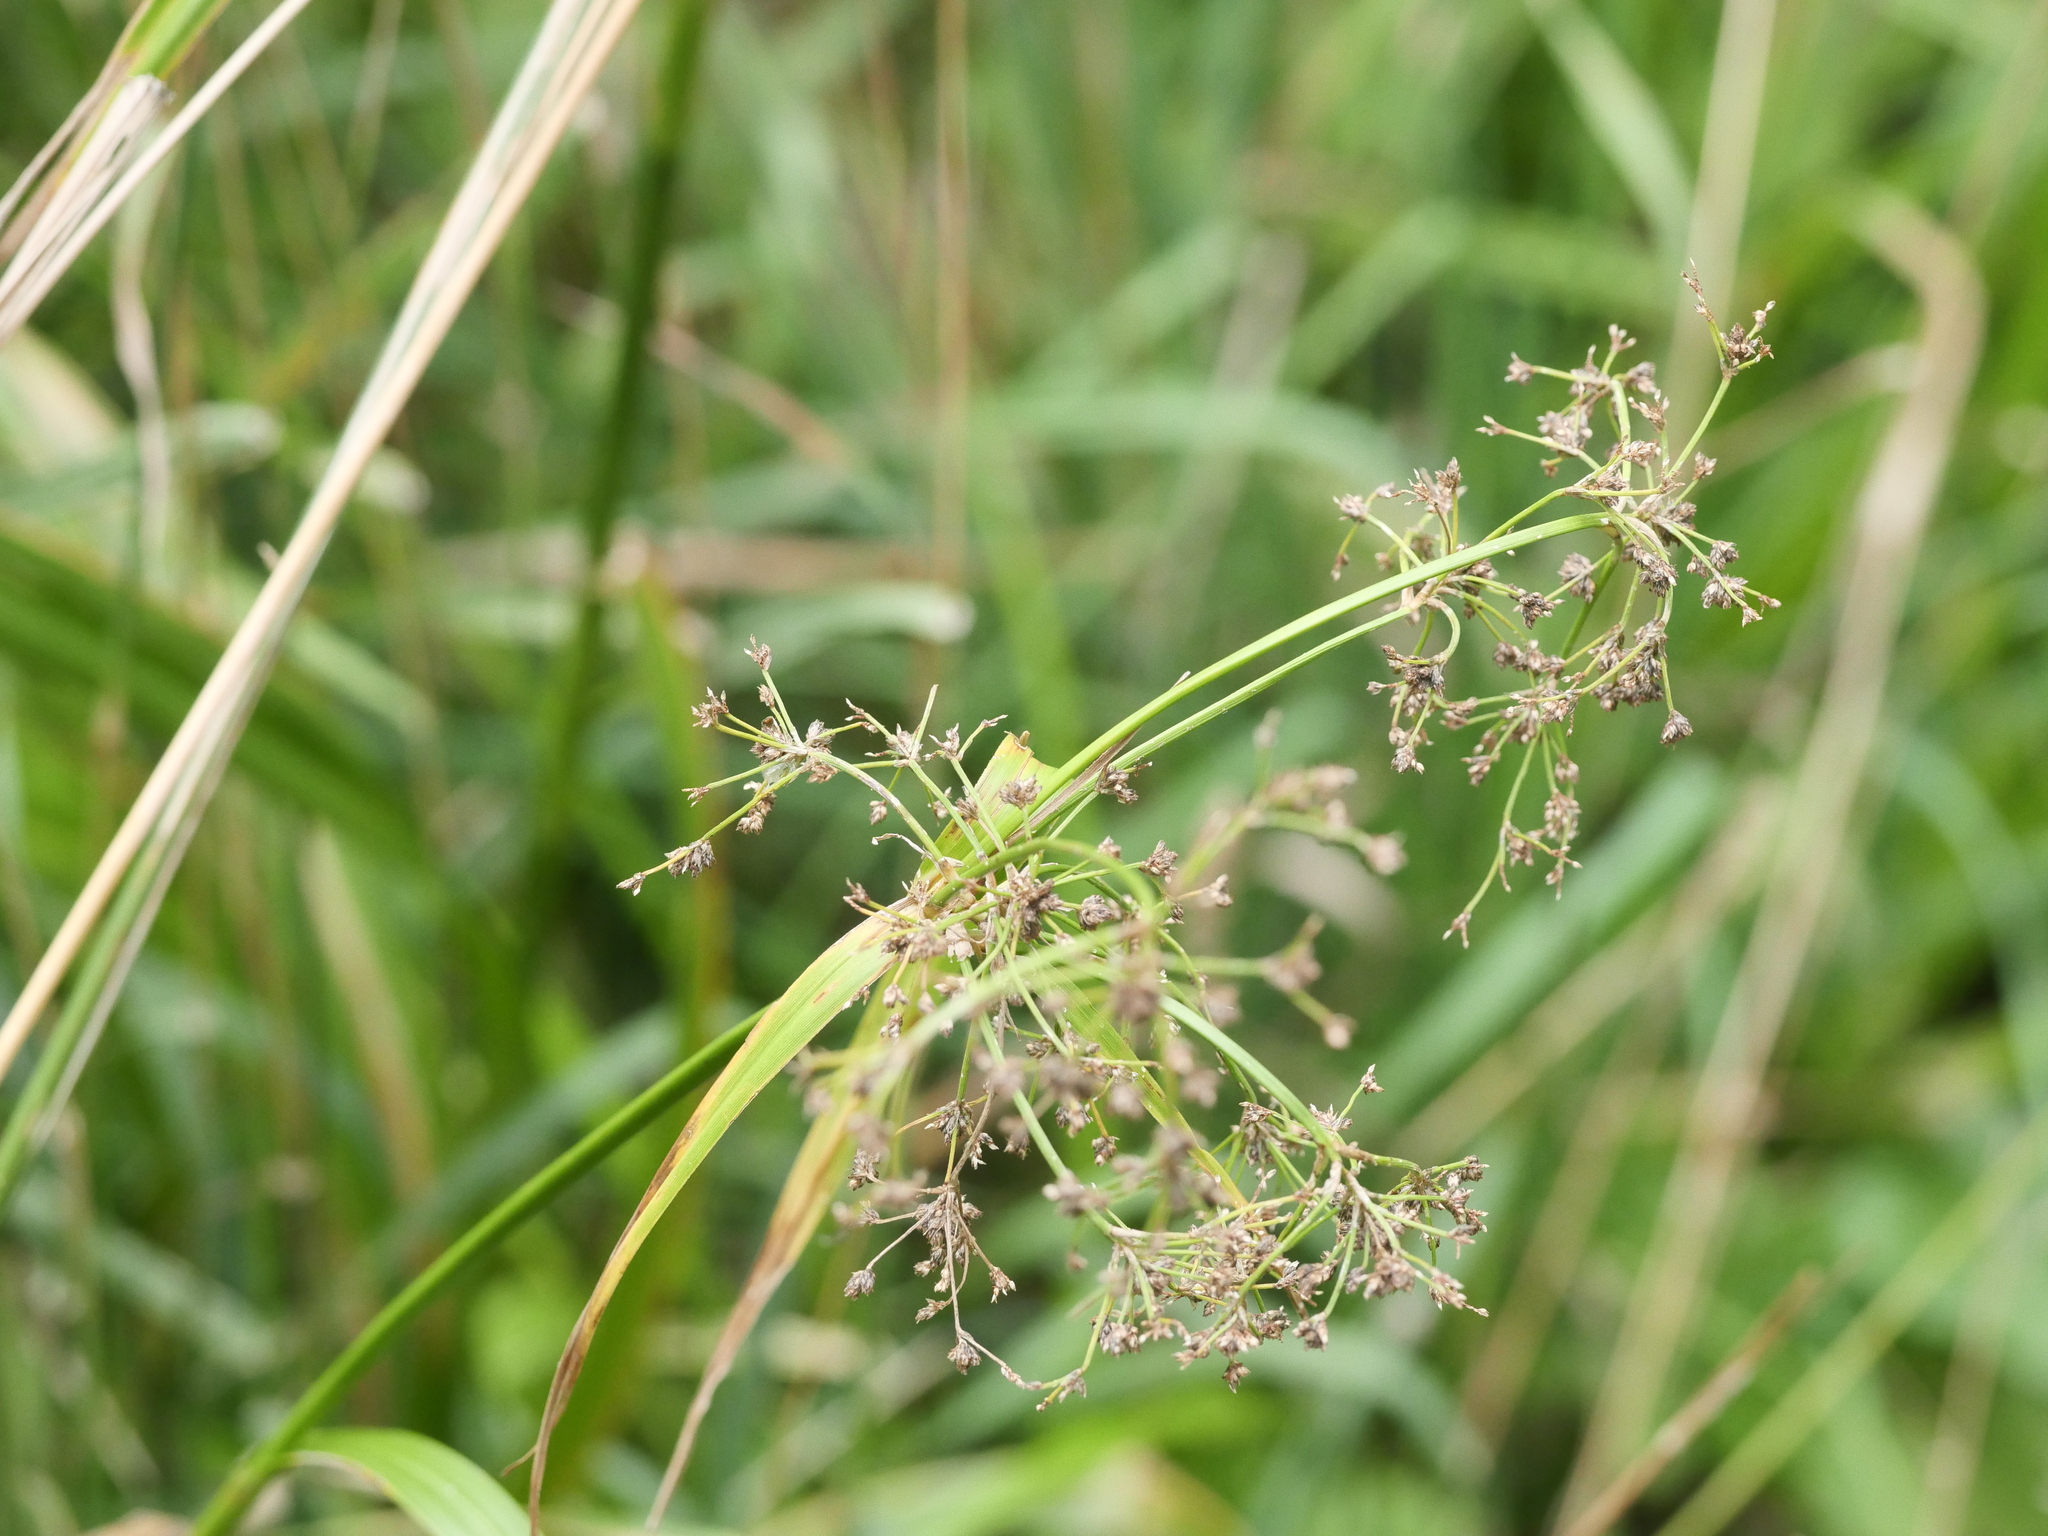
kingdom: Plantae
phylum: Tracheophyta
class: Liliopsida
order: Poales
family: Cyperaceae
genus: Scirpus
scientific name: Scirpus sylvaticus
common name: Wood club-rush
